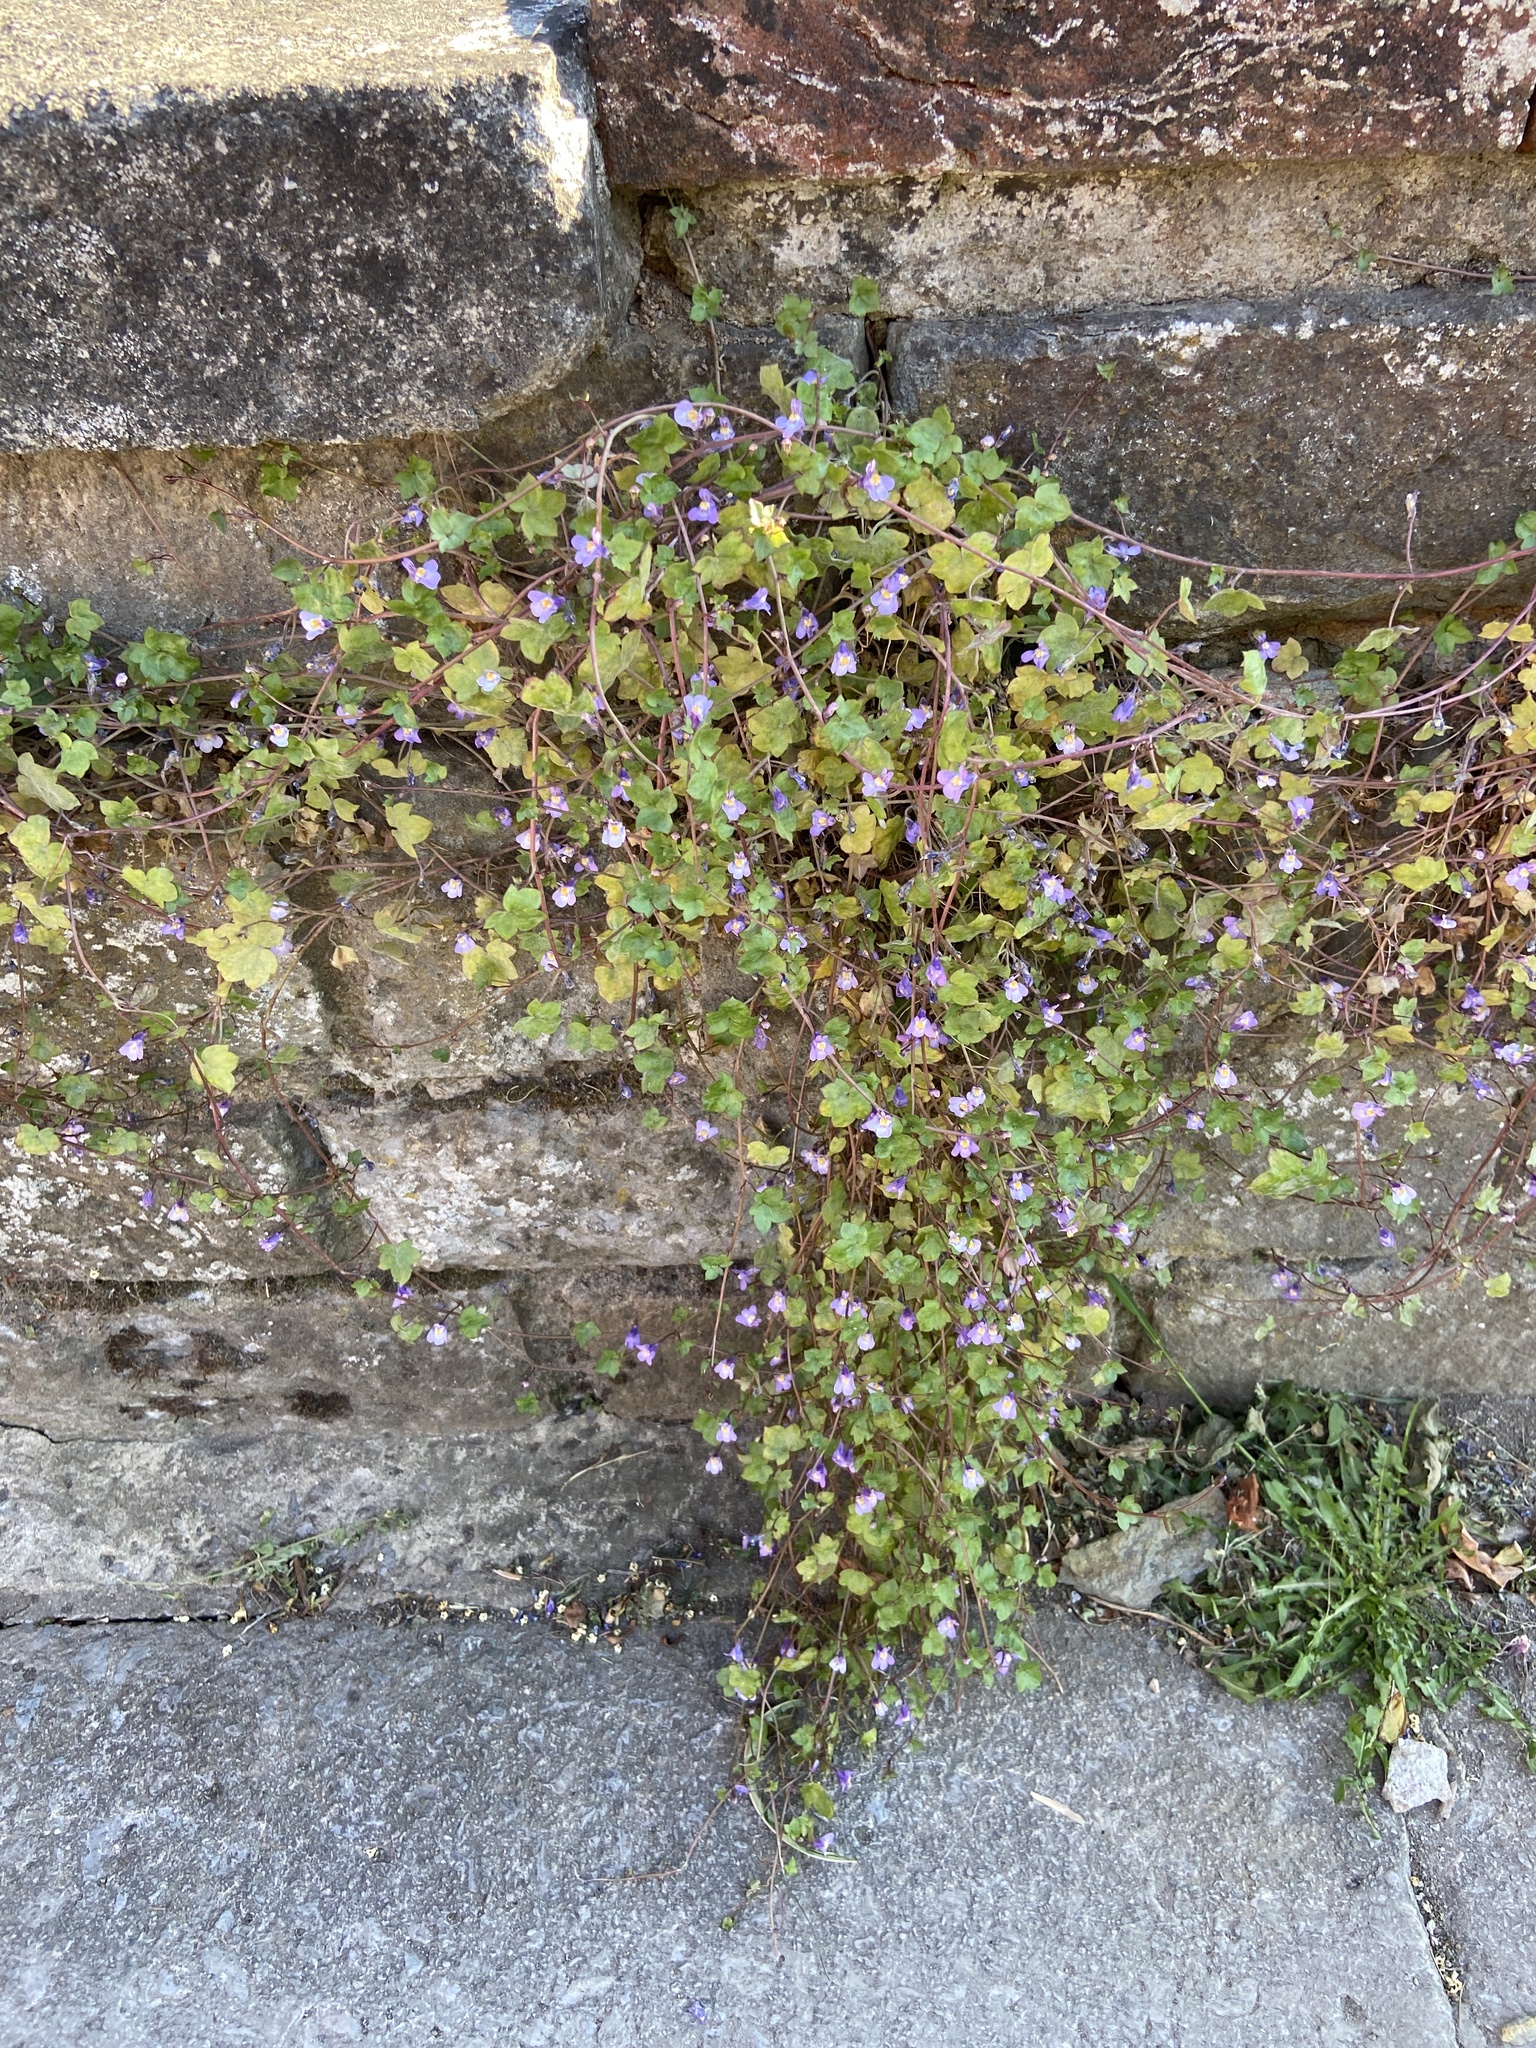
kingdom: Plantae
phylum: Tracheophyta
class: Magnoliopsida
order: Lamiales
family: Plantaginaceae
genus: Cymbalaria
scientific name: Cymbalaria muralis
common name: Ivy-leaved toadflax
